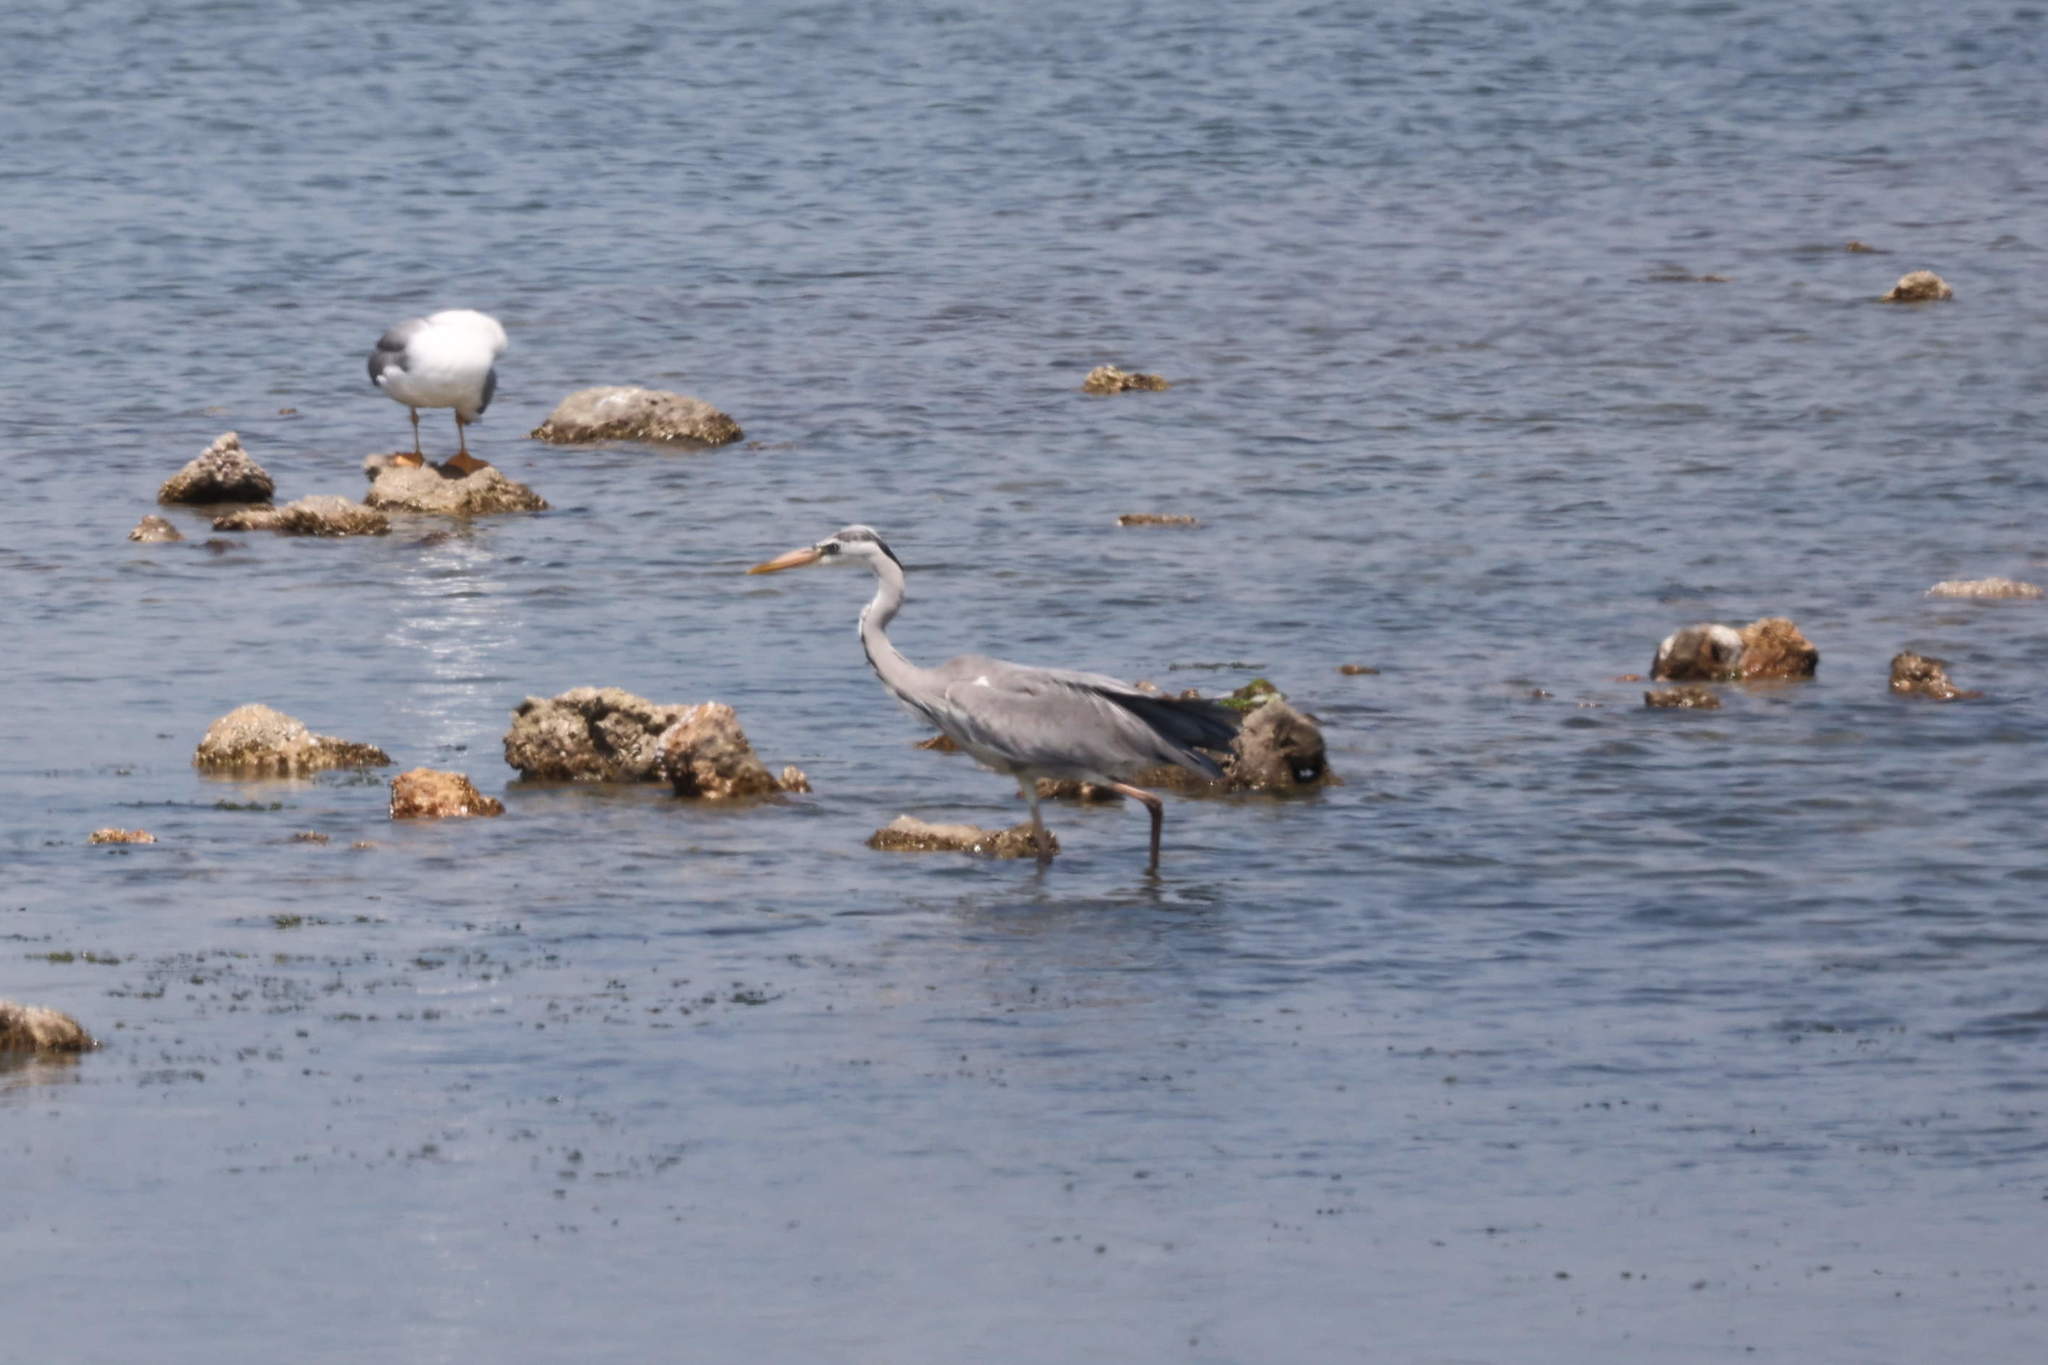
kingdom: Animalia
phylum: Chordata
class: Aves
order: Pelecaniformes
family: Ardeidae
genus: Ardea
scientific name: Ardea cinerea
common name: Grey heron
